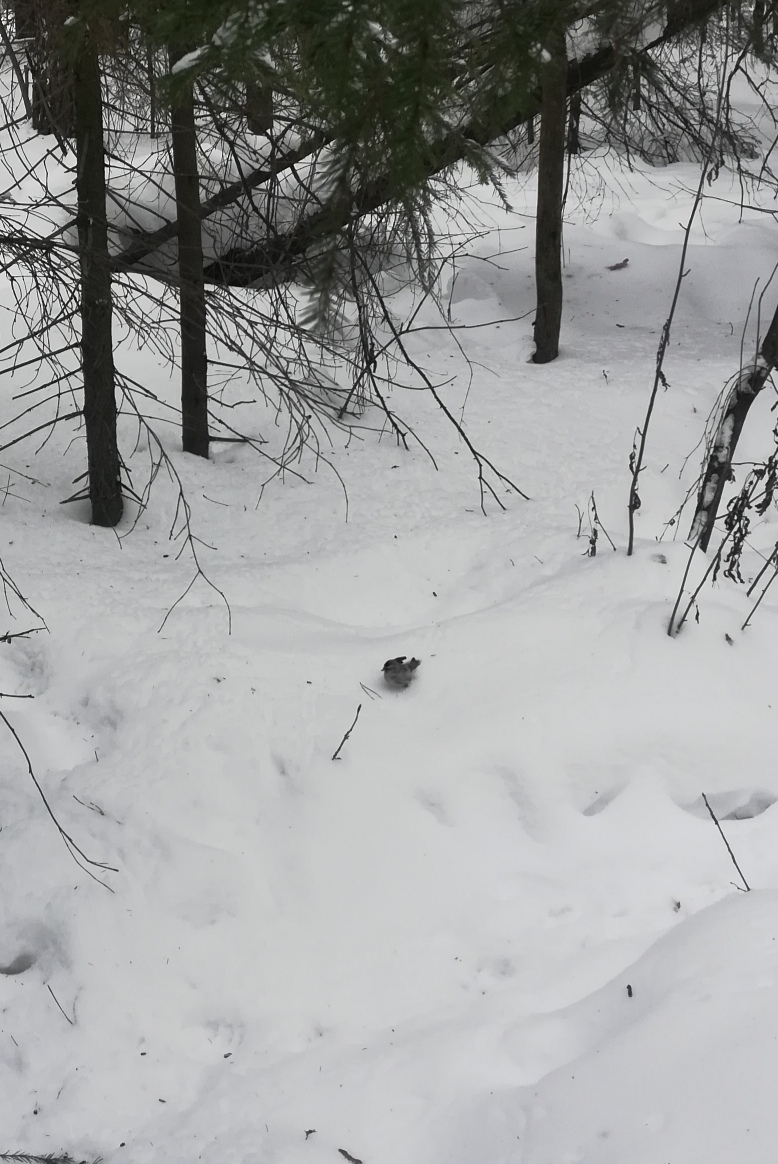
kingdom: Animalia
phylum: Chordata
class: Aves
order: Passeriformes
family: Fringillidae
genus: Acanthis
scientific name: Acanthis flammea
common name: Common redpoll
